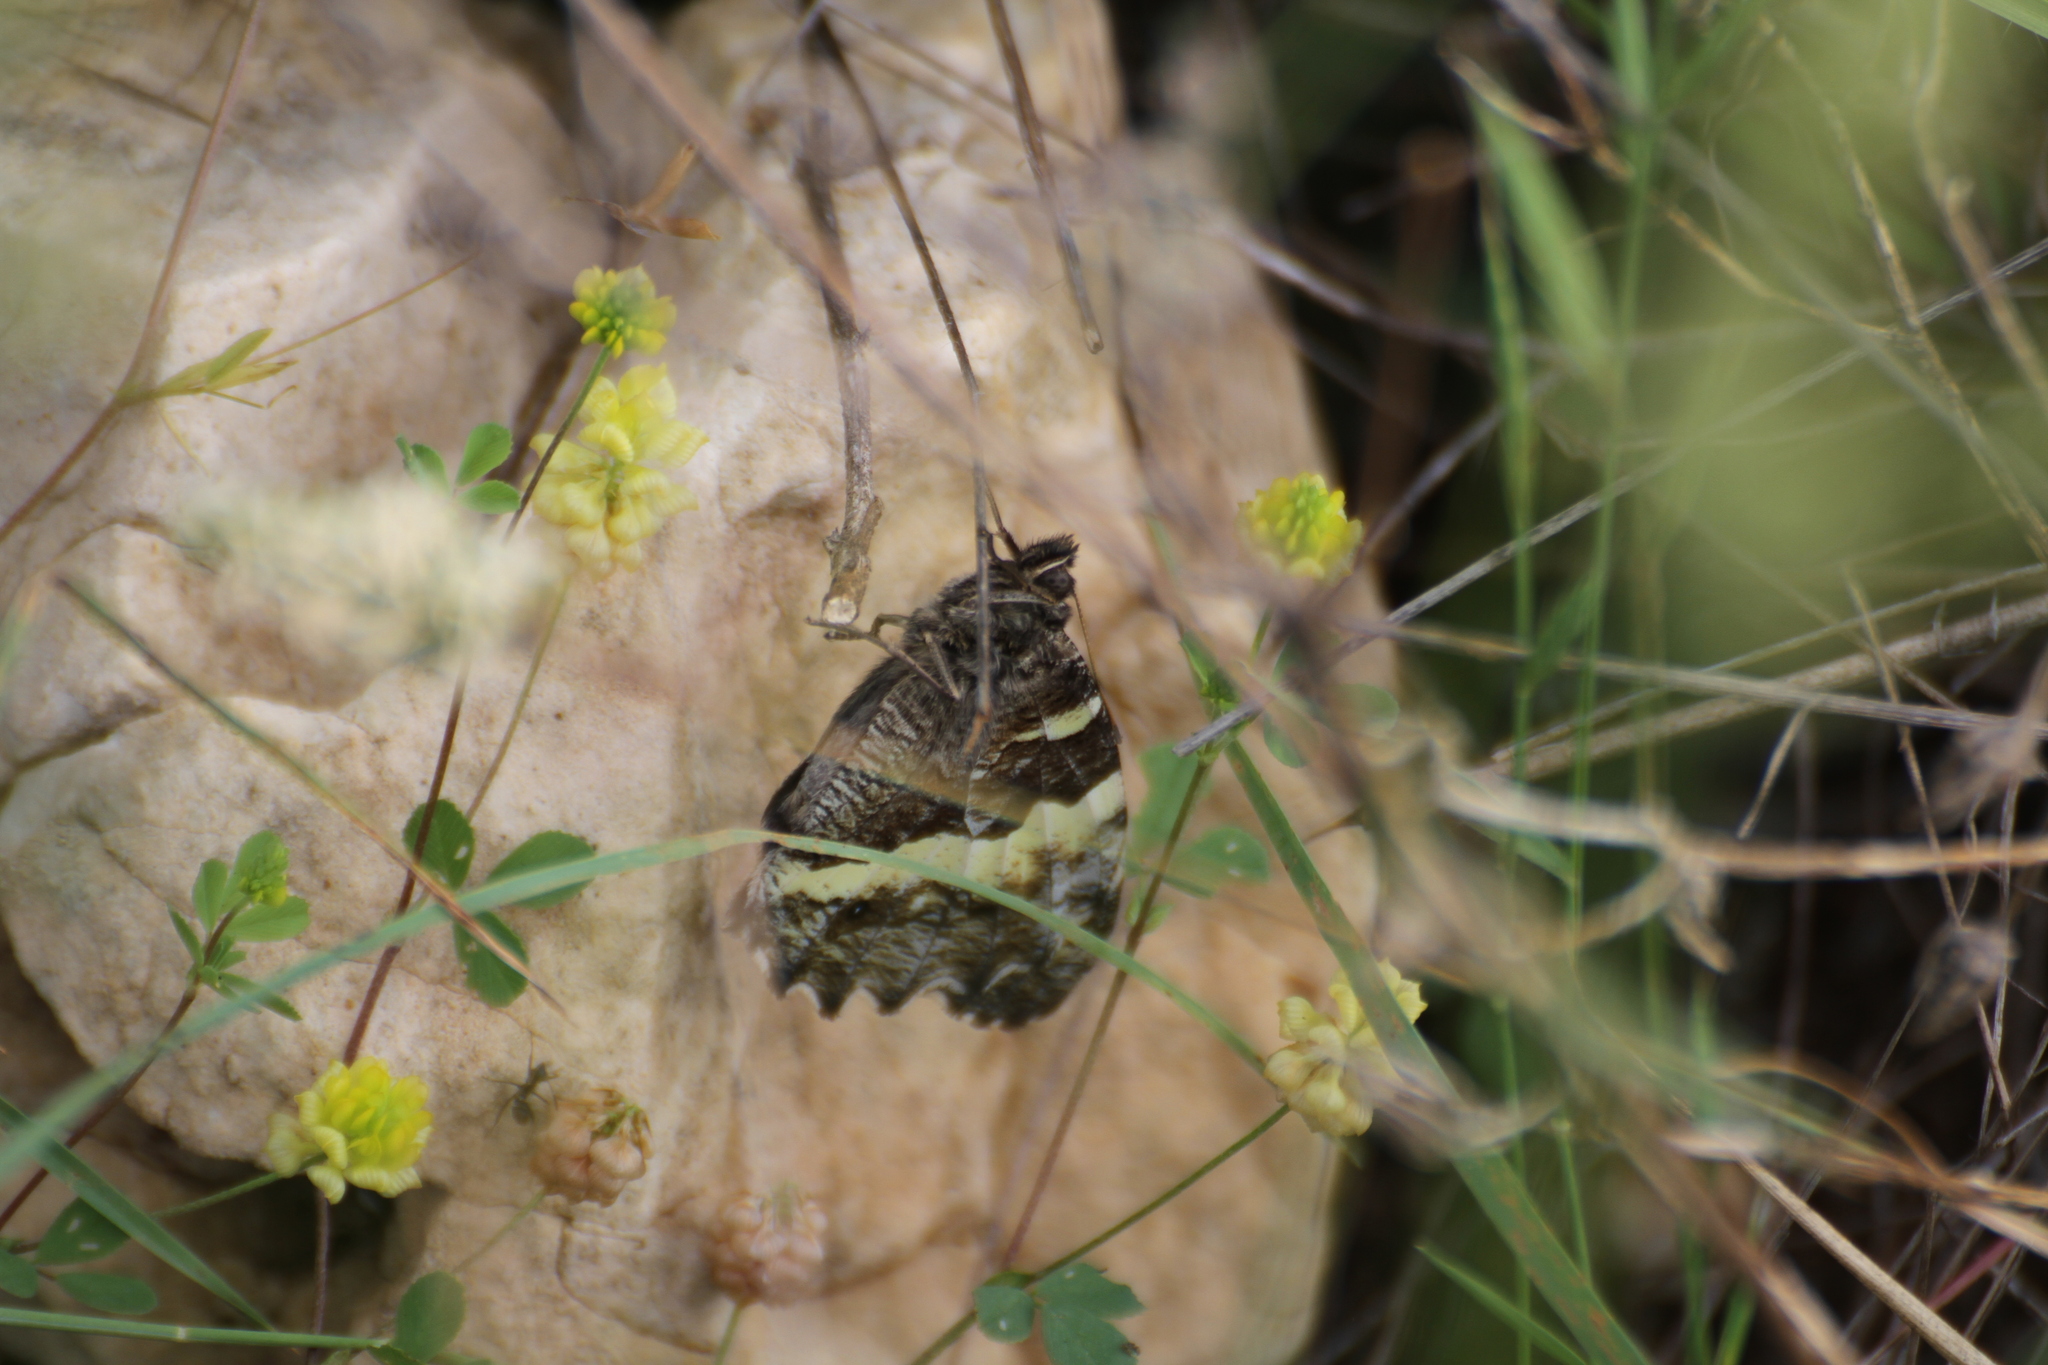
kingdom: Animalia
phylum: Arthropoda
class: Insecta
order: Lepidoptera
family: Lycaenidae
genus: Loweia
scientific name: Loweia tityrus
